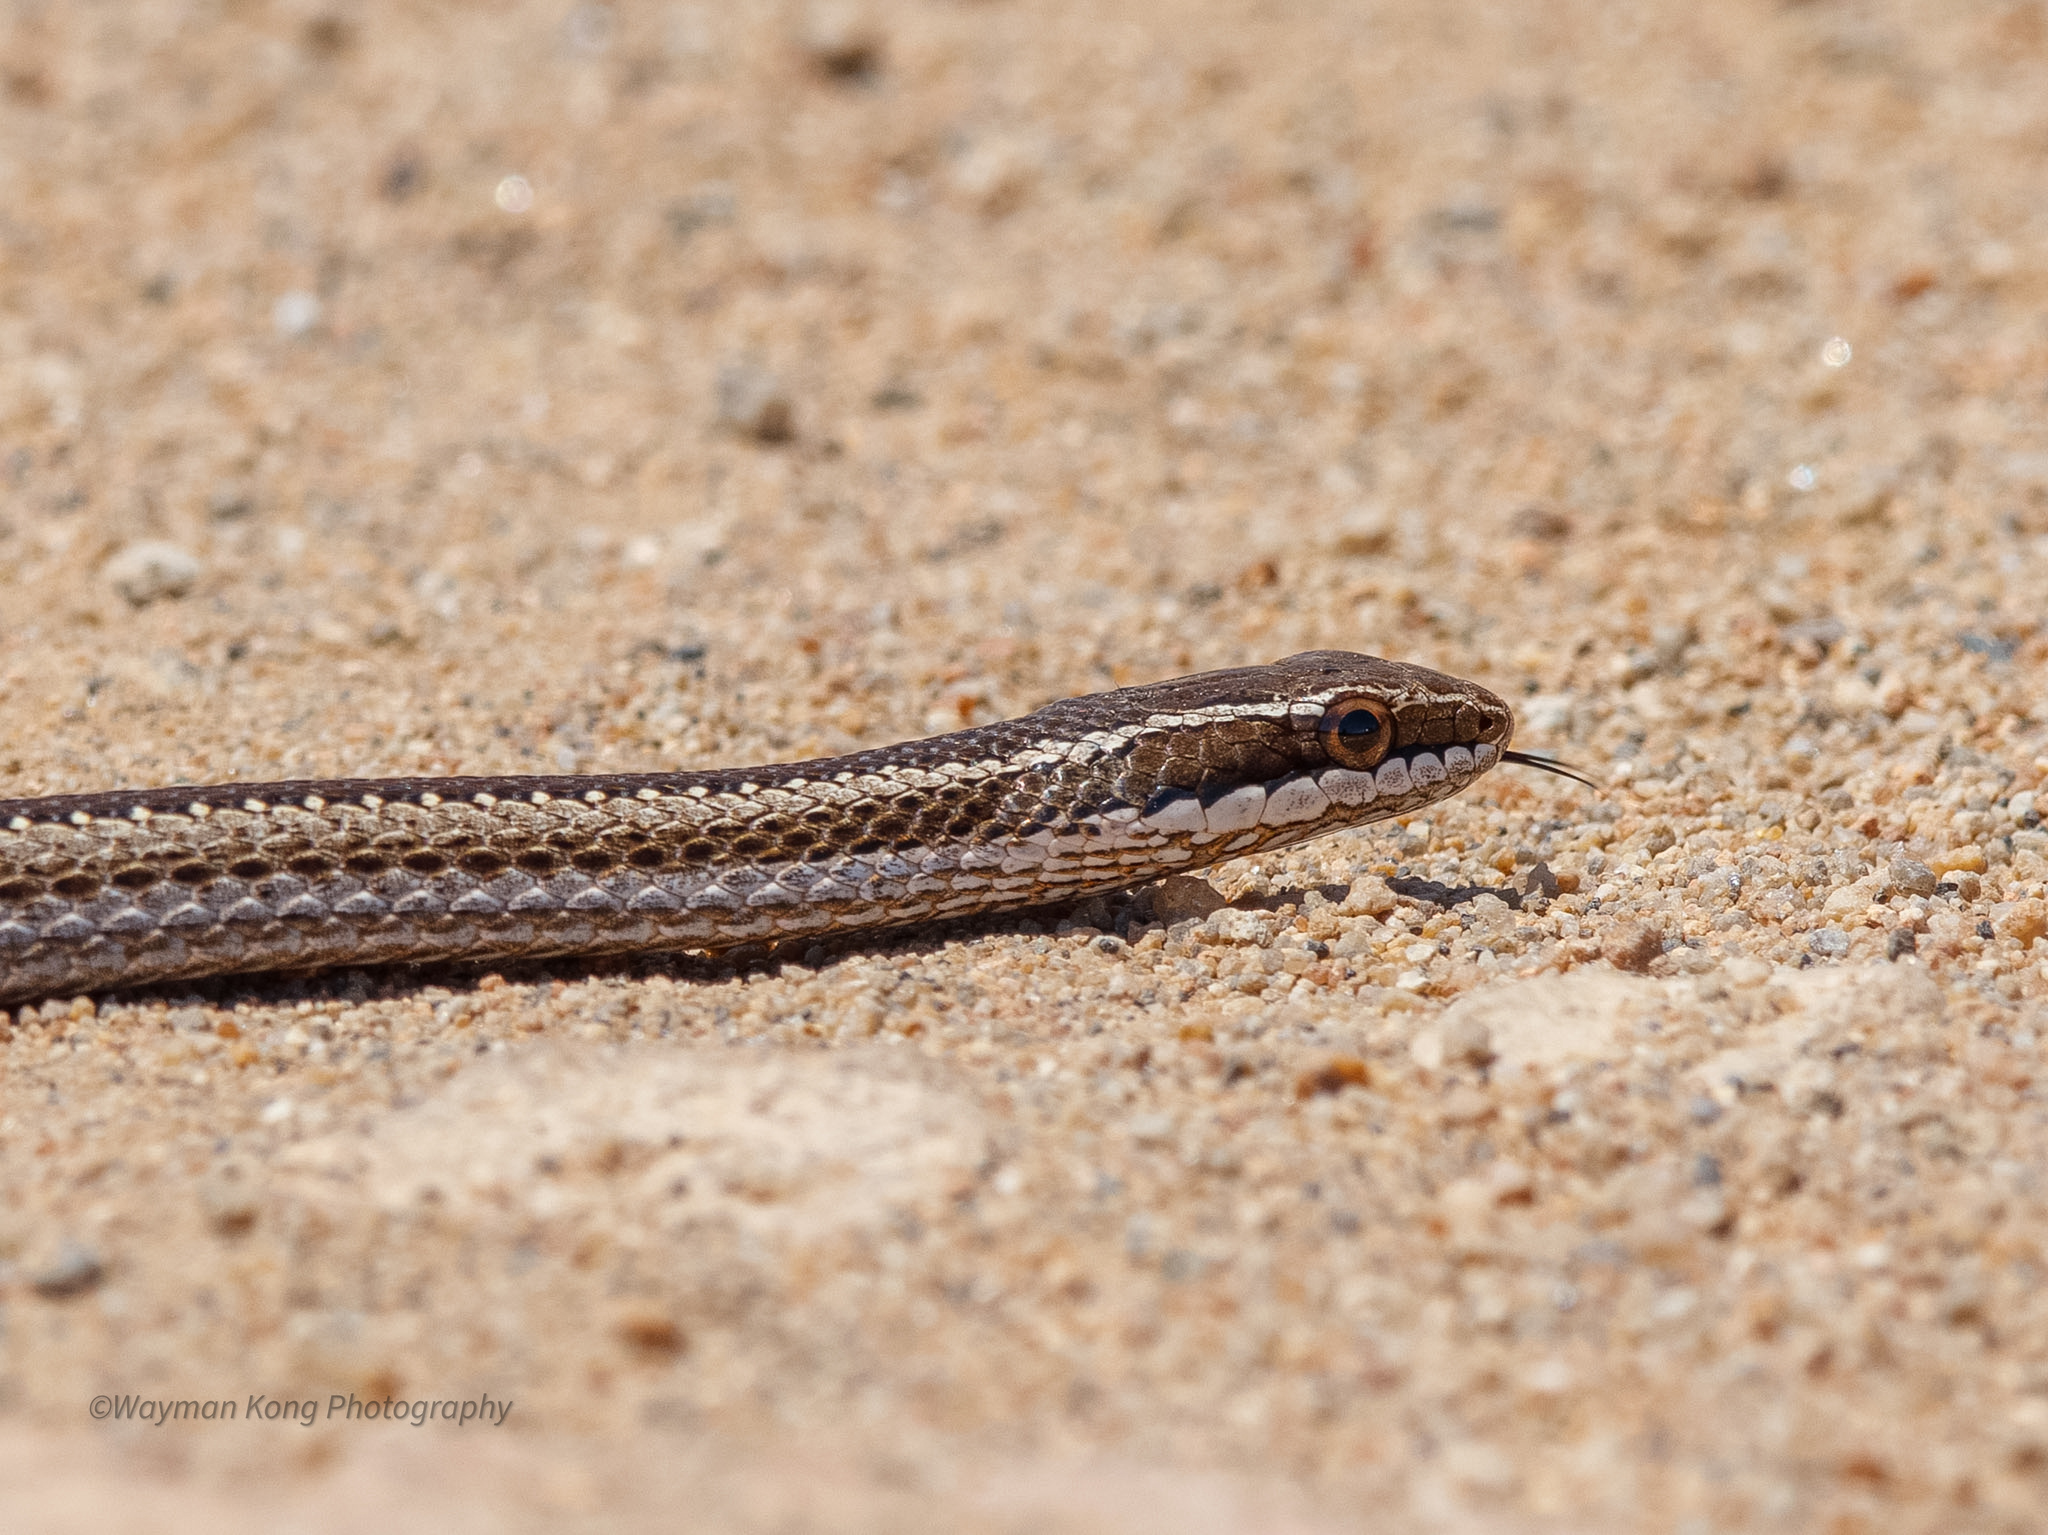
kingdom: Animalia
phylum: Chordata
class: Squamata
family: Colubridae
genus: Philodryas
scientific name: Philodryas chamissonis
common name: Chilean green racer
